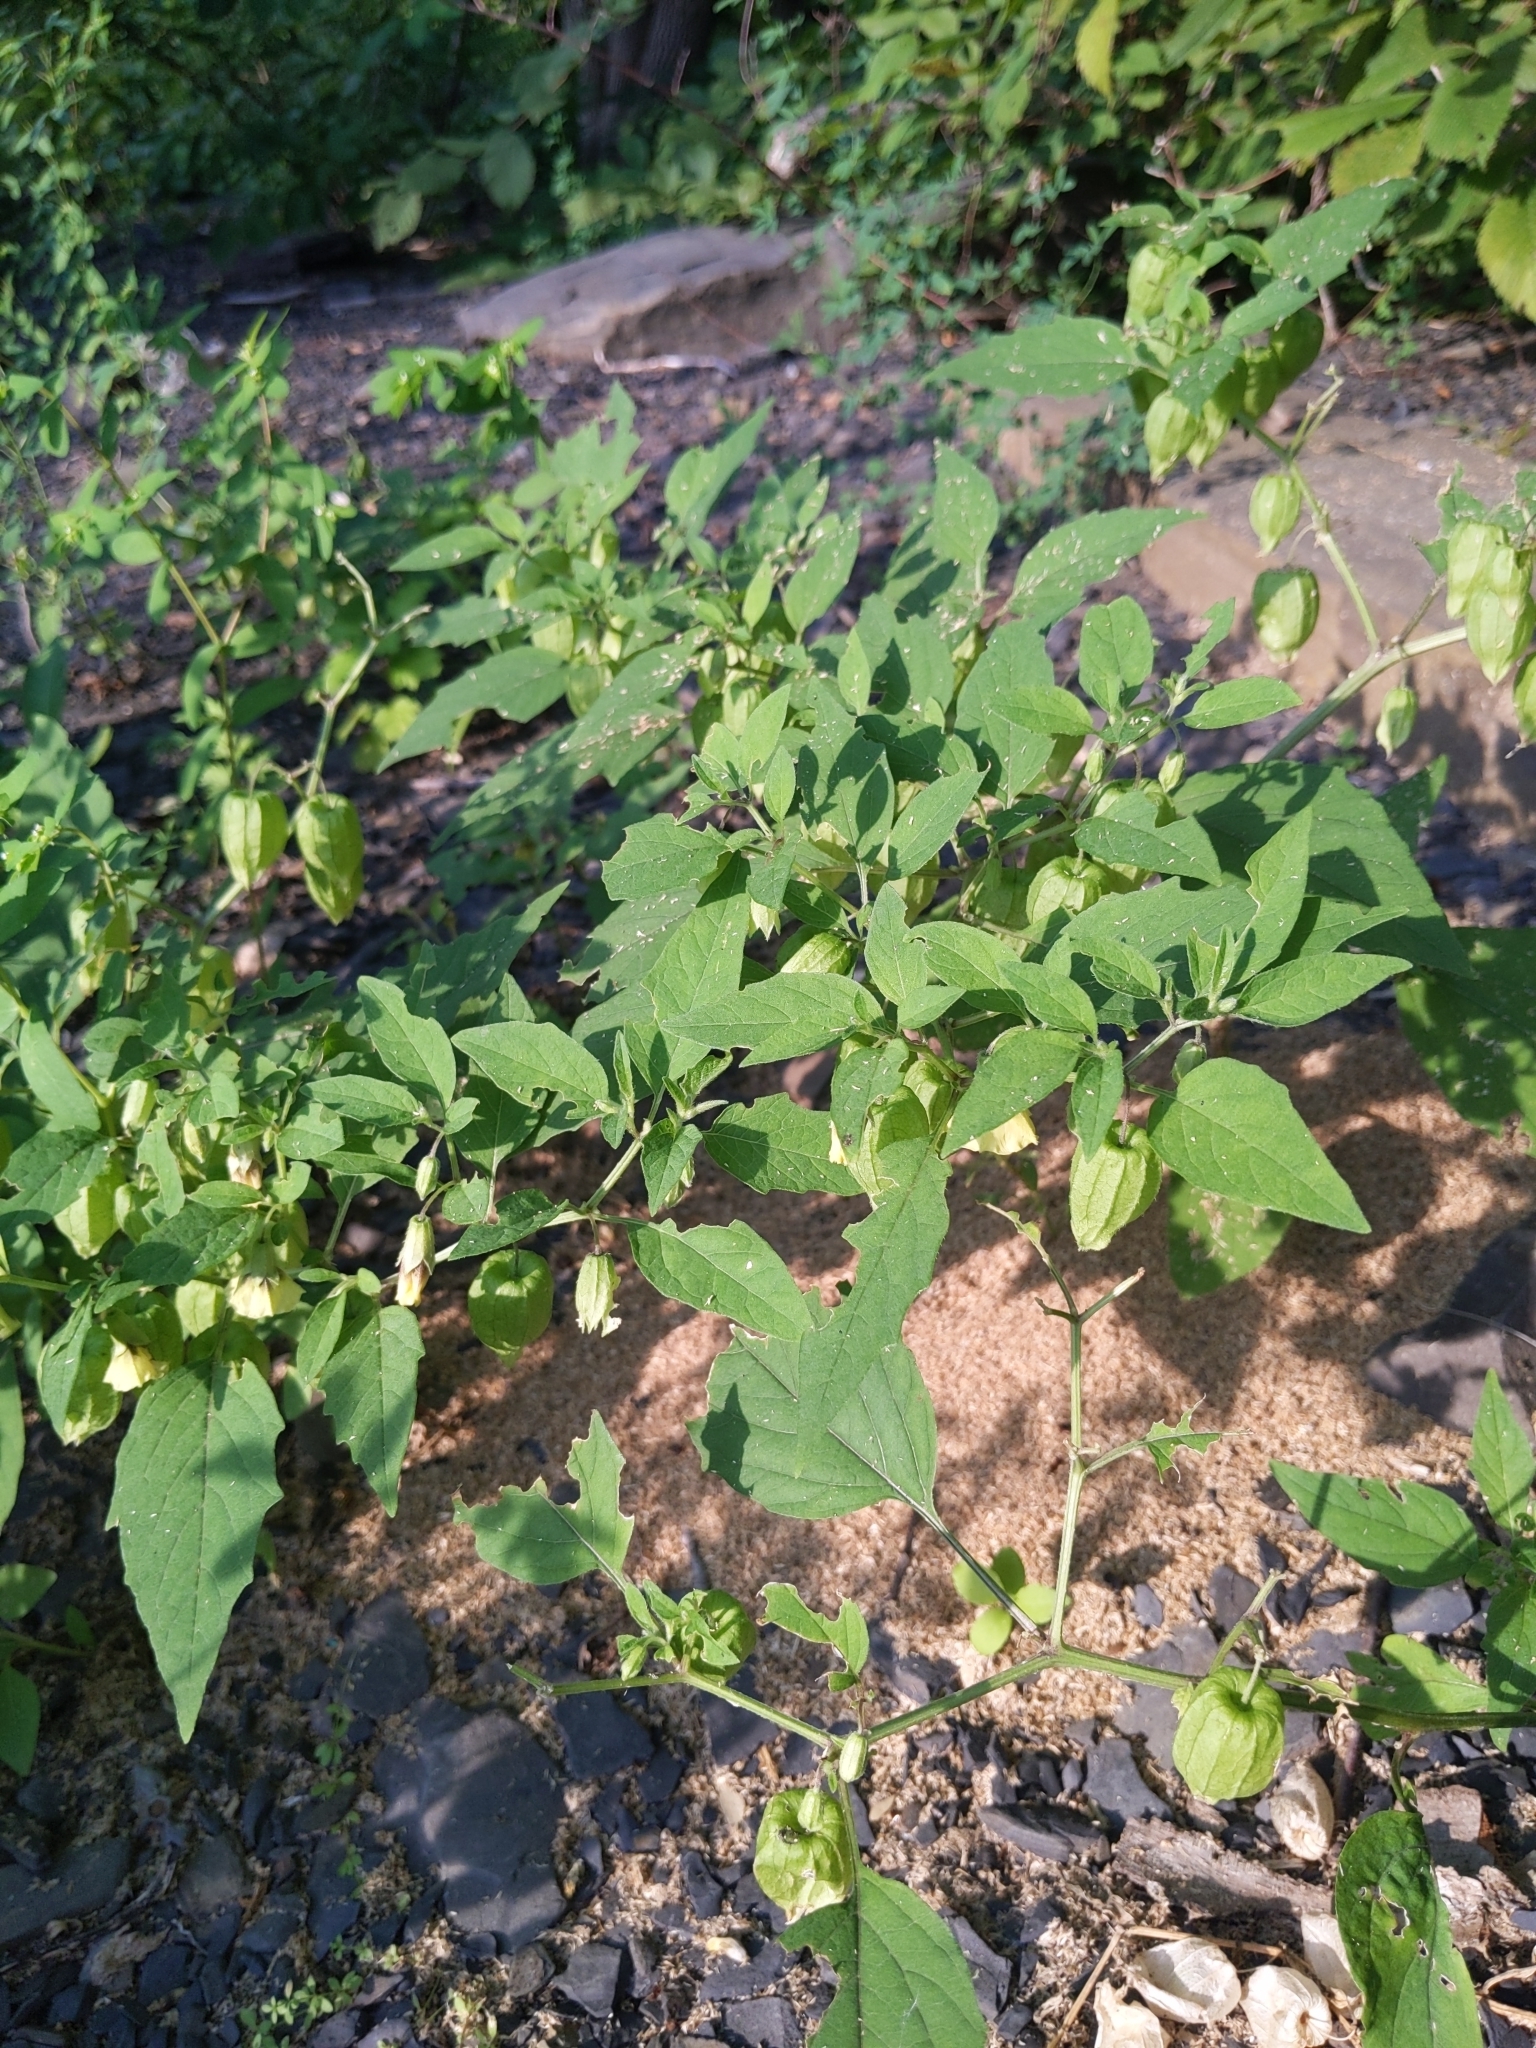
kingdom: Plantae
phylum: Tracheophyta
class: Magnoliopsida
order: Solanales
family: Solanaceae
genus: Physalis
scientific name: Physalis longifolia
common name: Common ground-cherry
